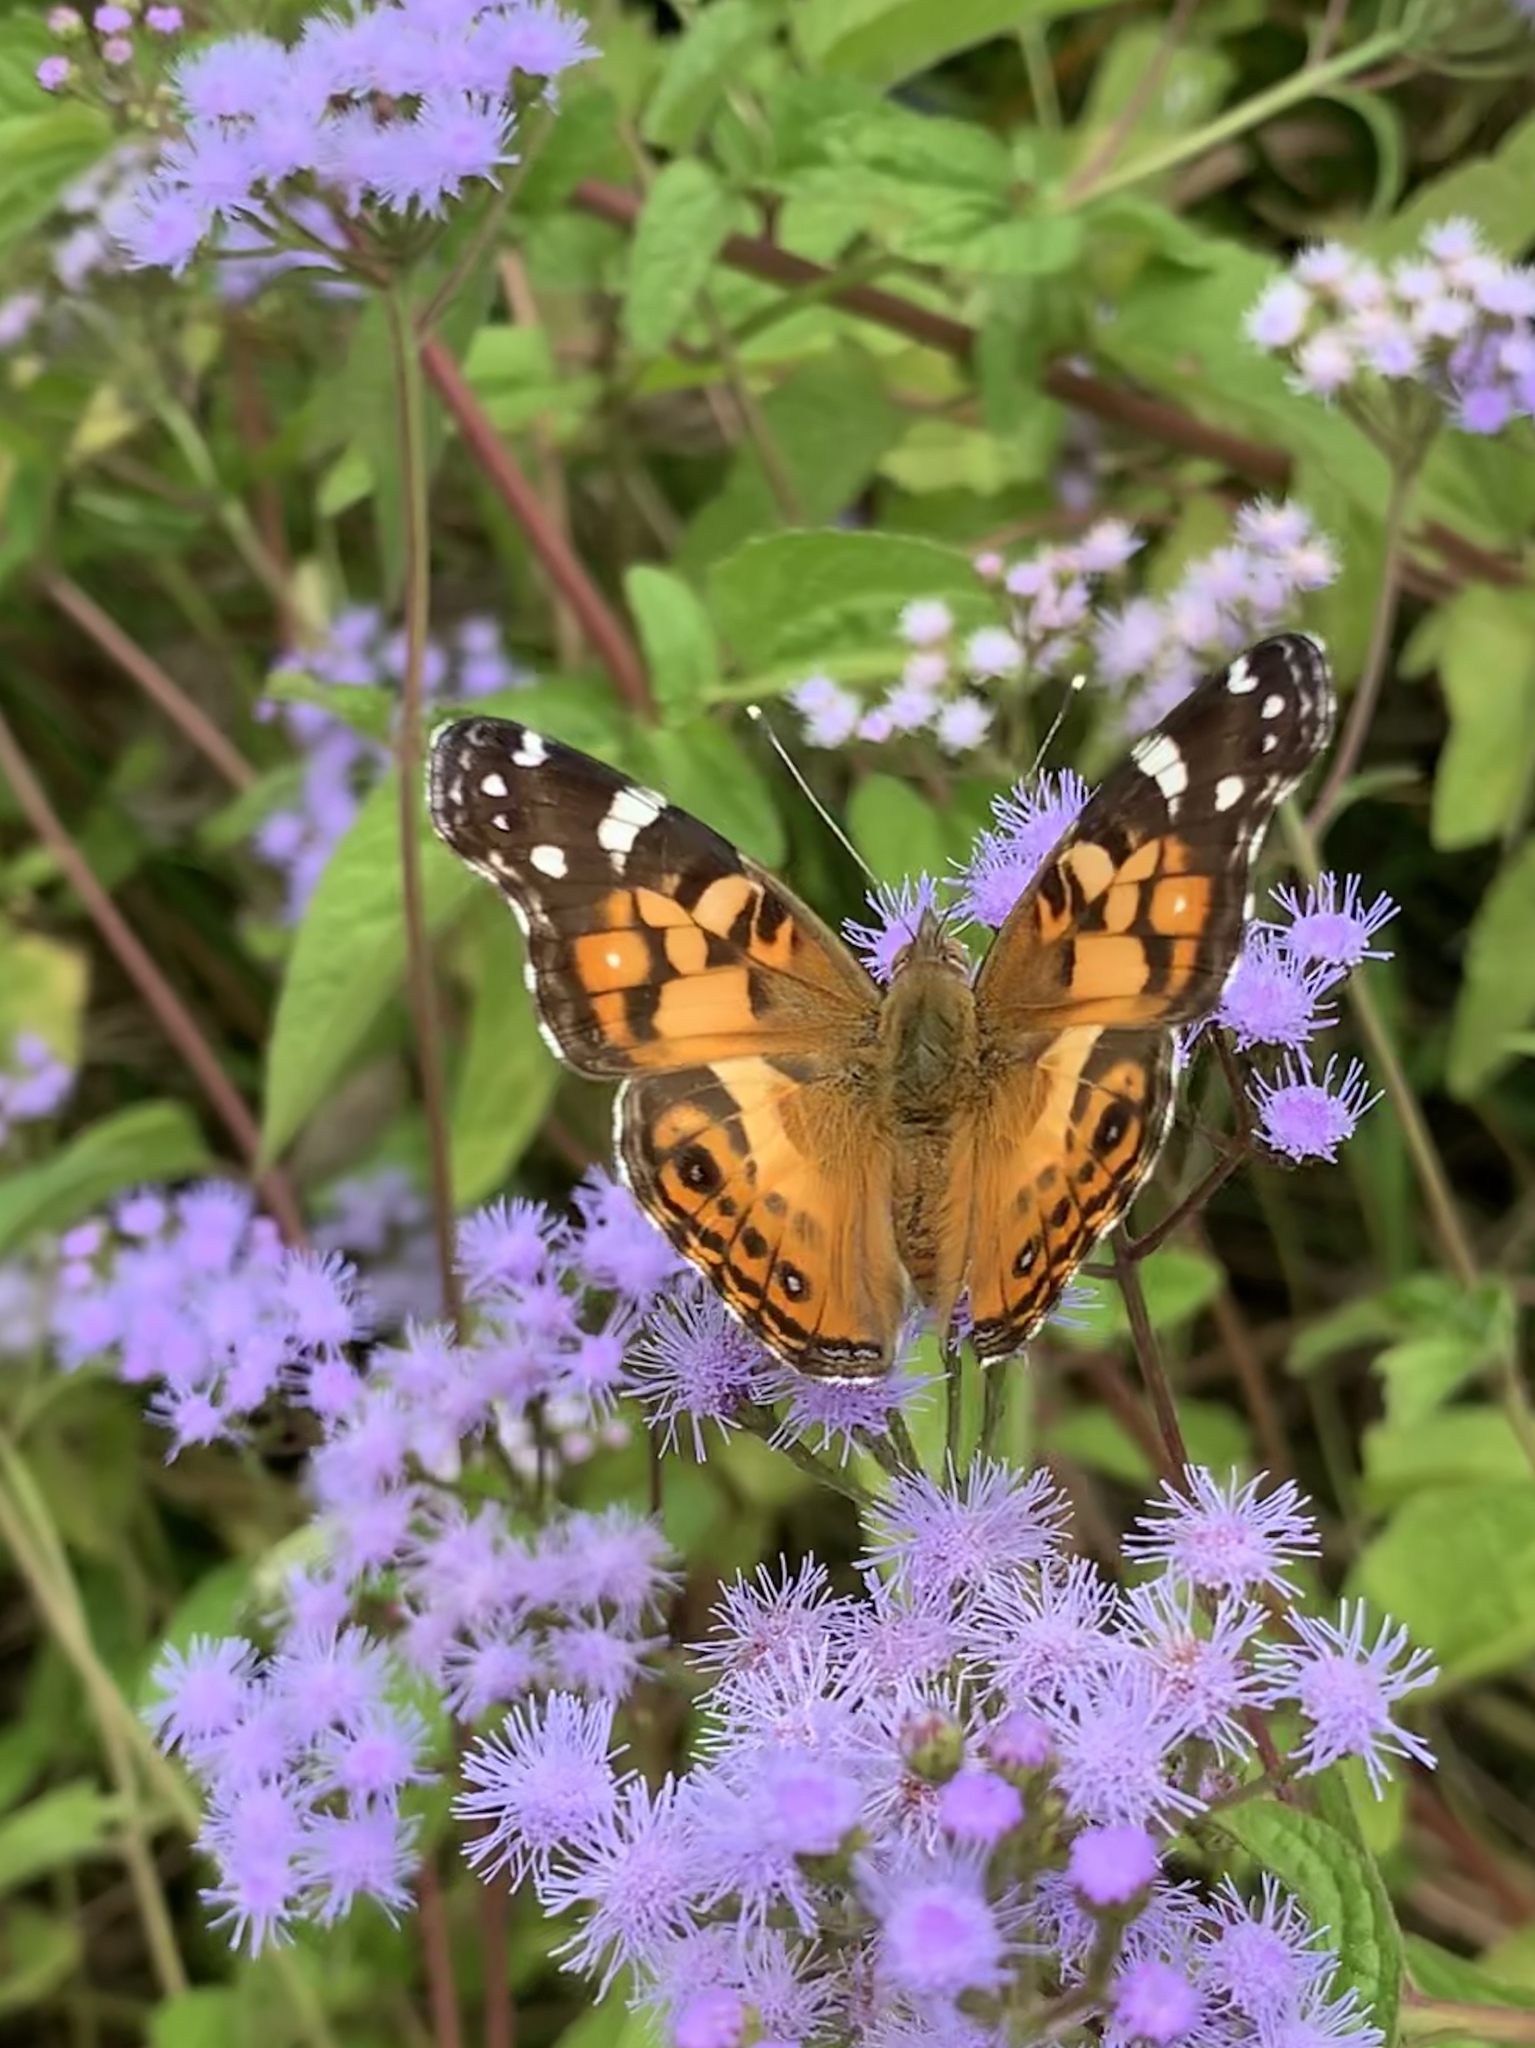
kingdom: Animalia
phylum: Arthropoda
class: Insecta
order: Lepidoptera
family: Nymphalidae
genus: Vanessa
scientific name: Vanessa virginiensis
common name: American lady
